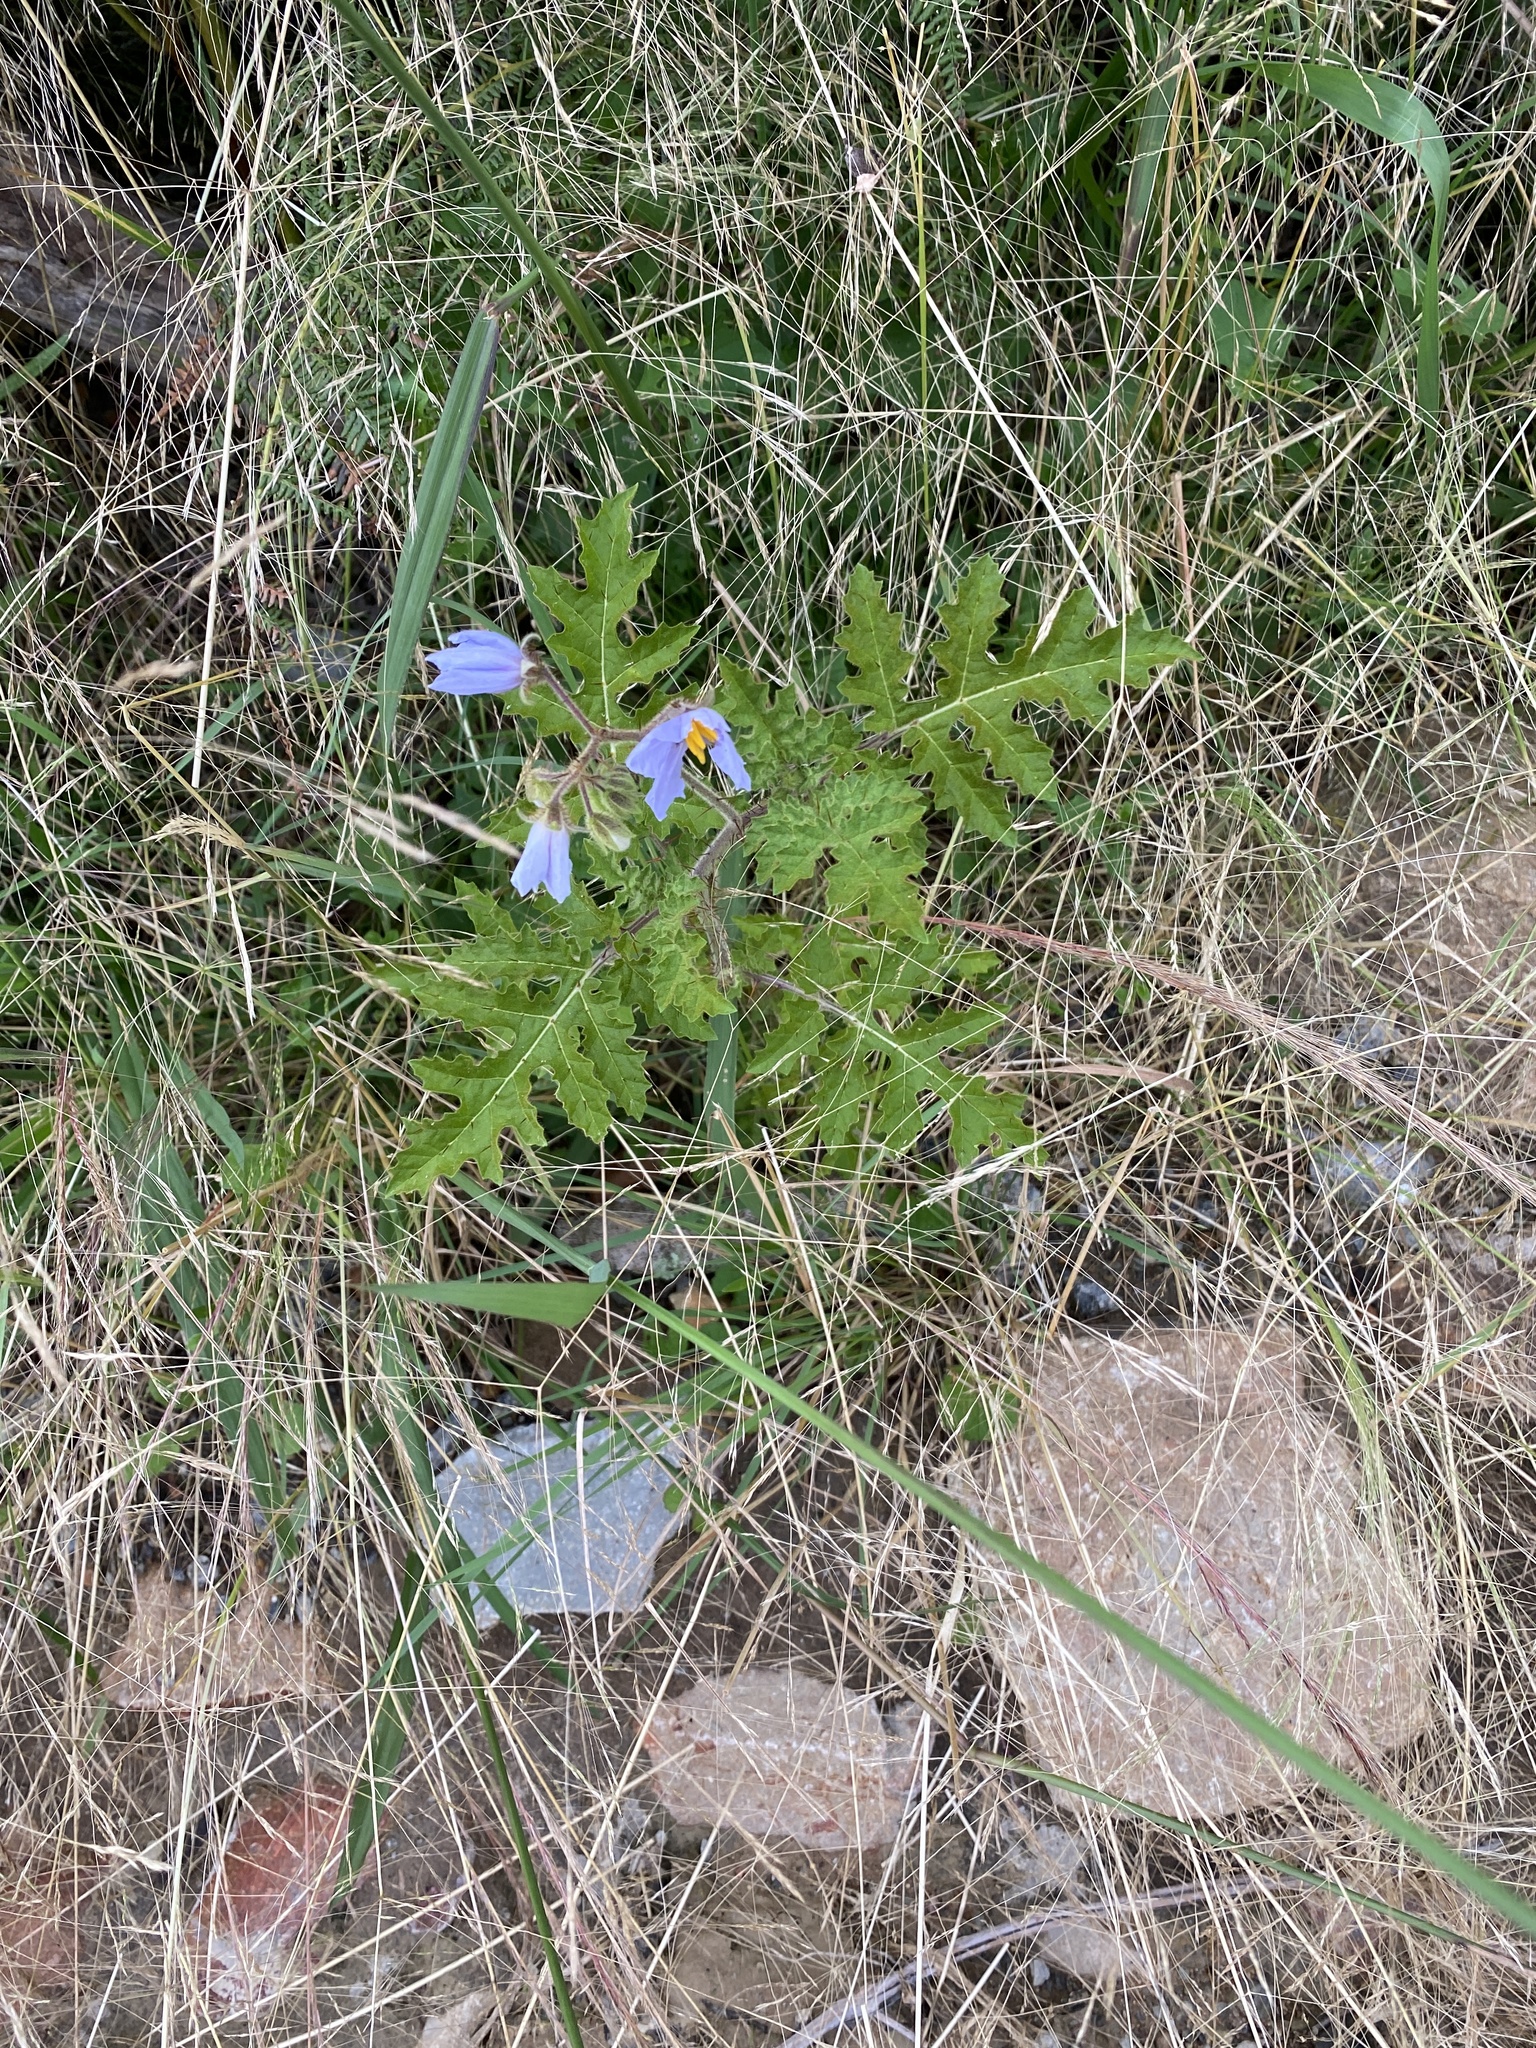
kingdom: Plantae
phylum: Tracheophyta
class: Magnoliopsida
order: Solanales
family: Solanaceae
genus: Solanum
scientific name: Solanum sisymbriifolium
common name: Red buffalo-bur
